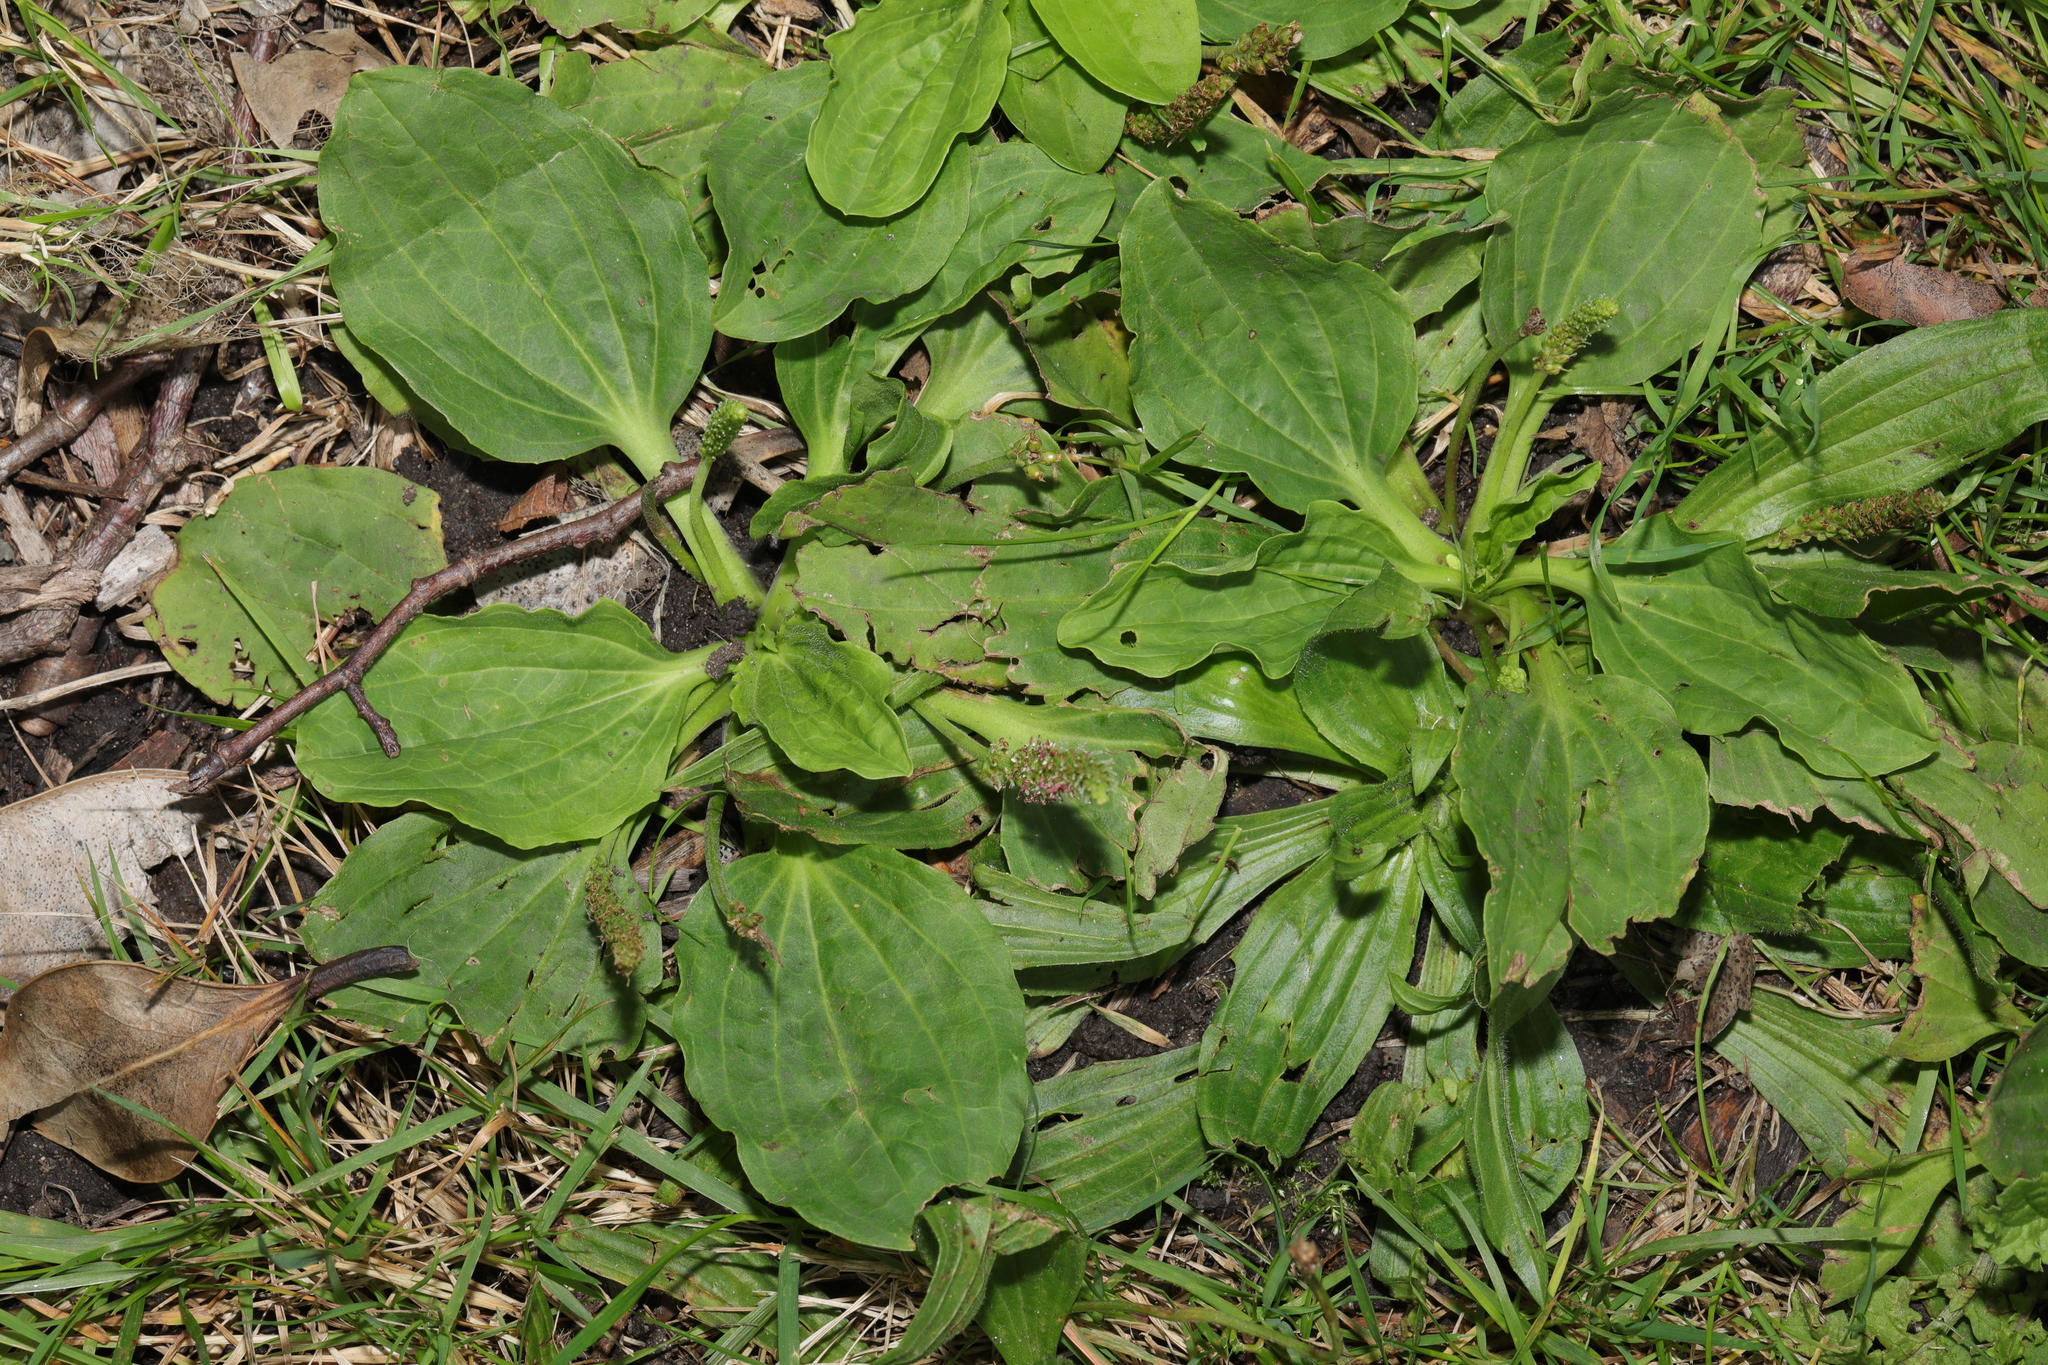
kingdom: Plantae
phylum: Tracheophyta
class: Magnoliopsida
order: Lamiales
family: Plantaginaceae
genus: Plantago
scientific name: Plantago major
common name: Common plantain
